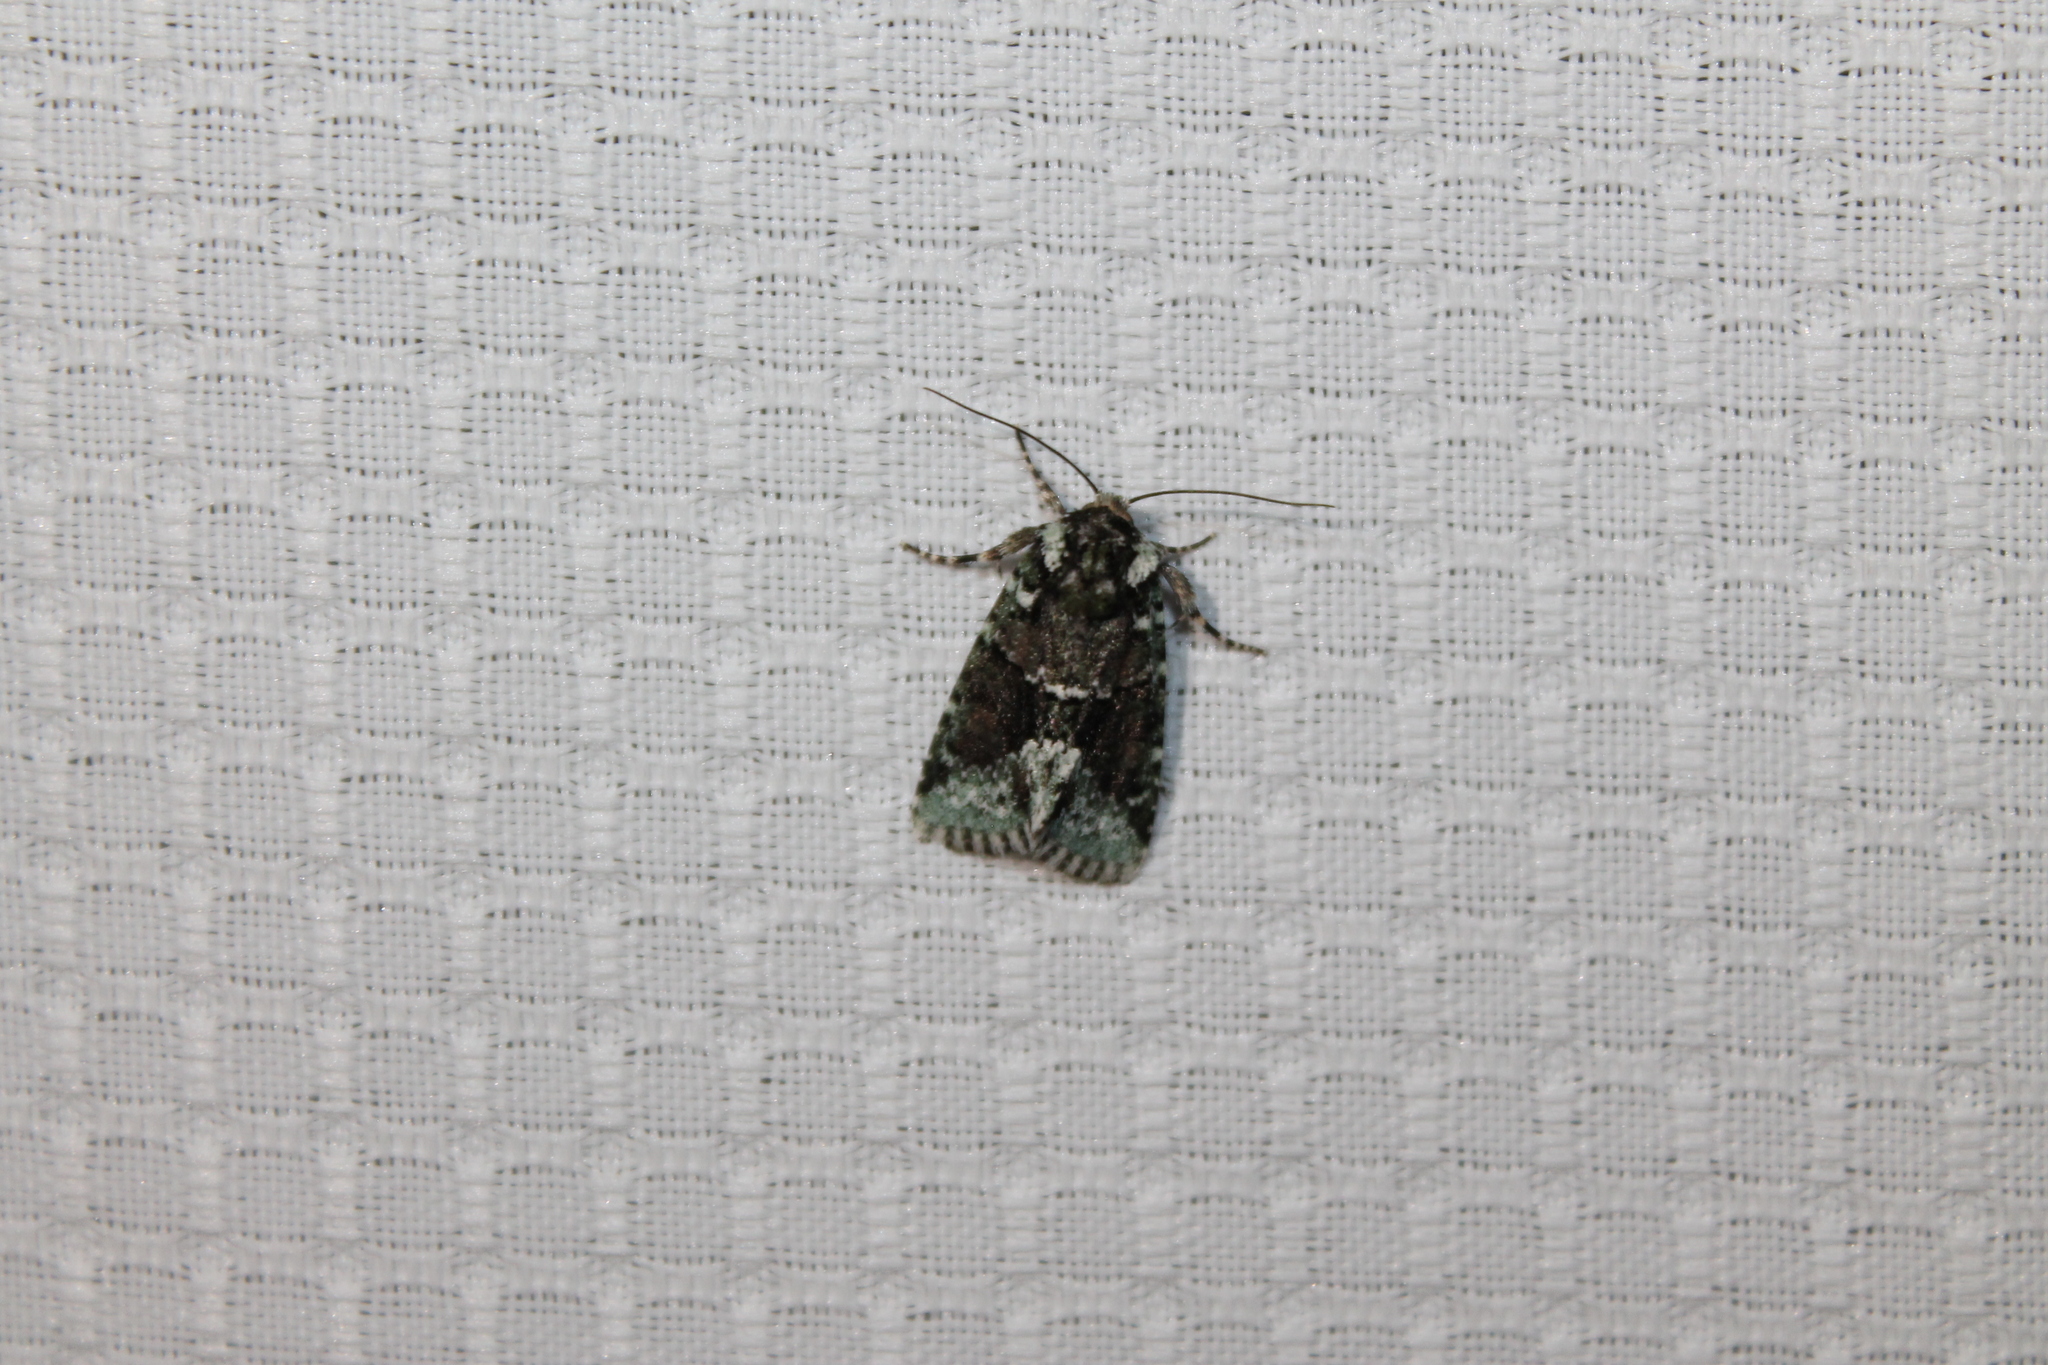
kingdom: Animalia
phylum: Arthropoda
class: Insecta
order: Lepidoptera
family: Noctuidae
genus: Lacinipolia
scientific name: Lacinipolia explicata
